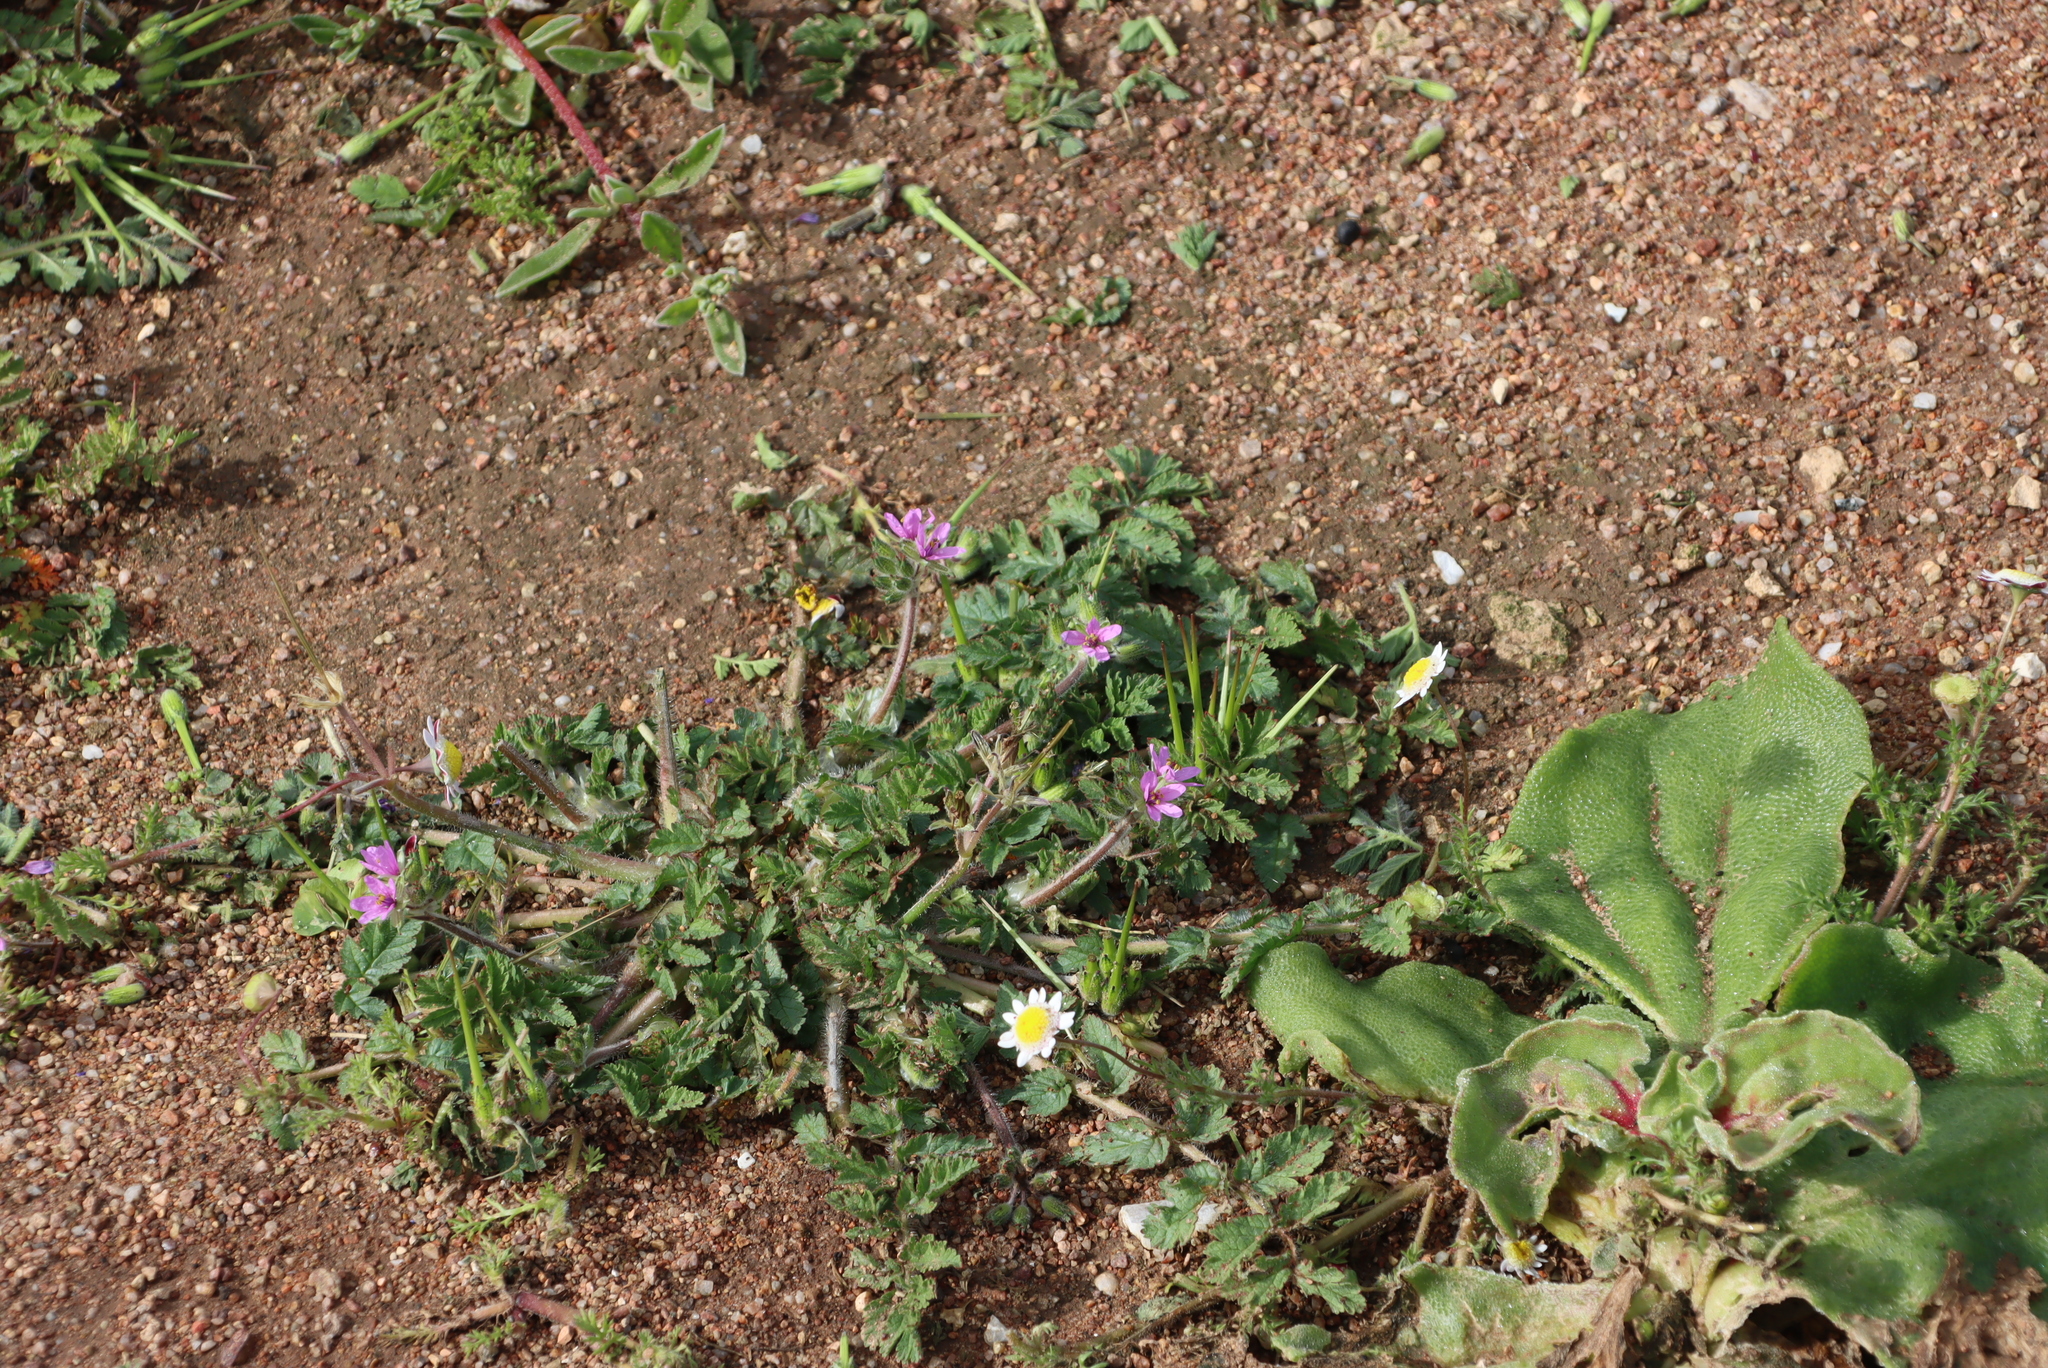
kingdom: Plantae
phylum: Tracheophyta
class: Magnoliopsida
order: Geraniales
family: Geraniaceae
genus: Erodium
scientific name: Erodium cicutarium
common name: Common stork's-bill
